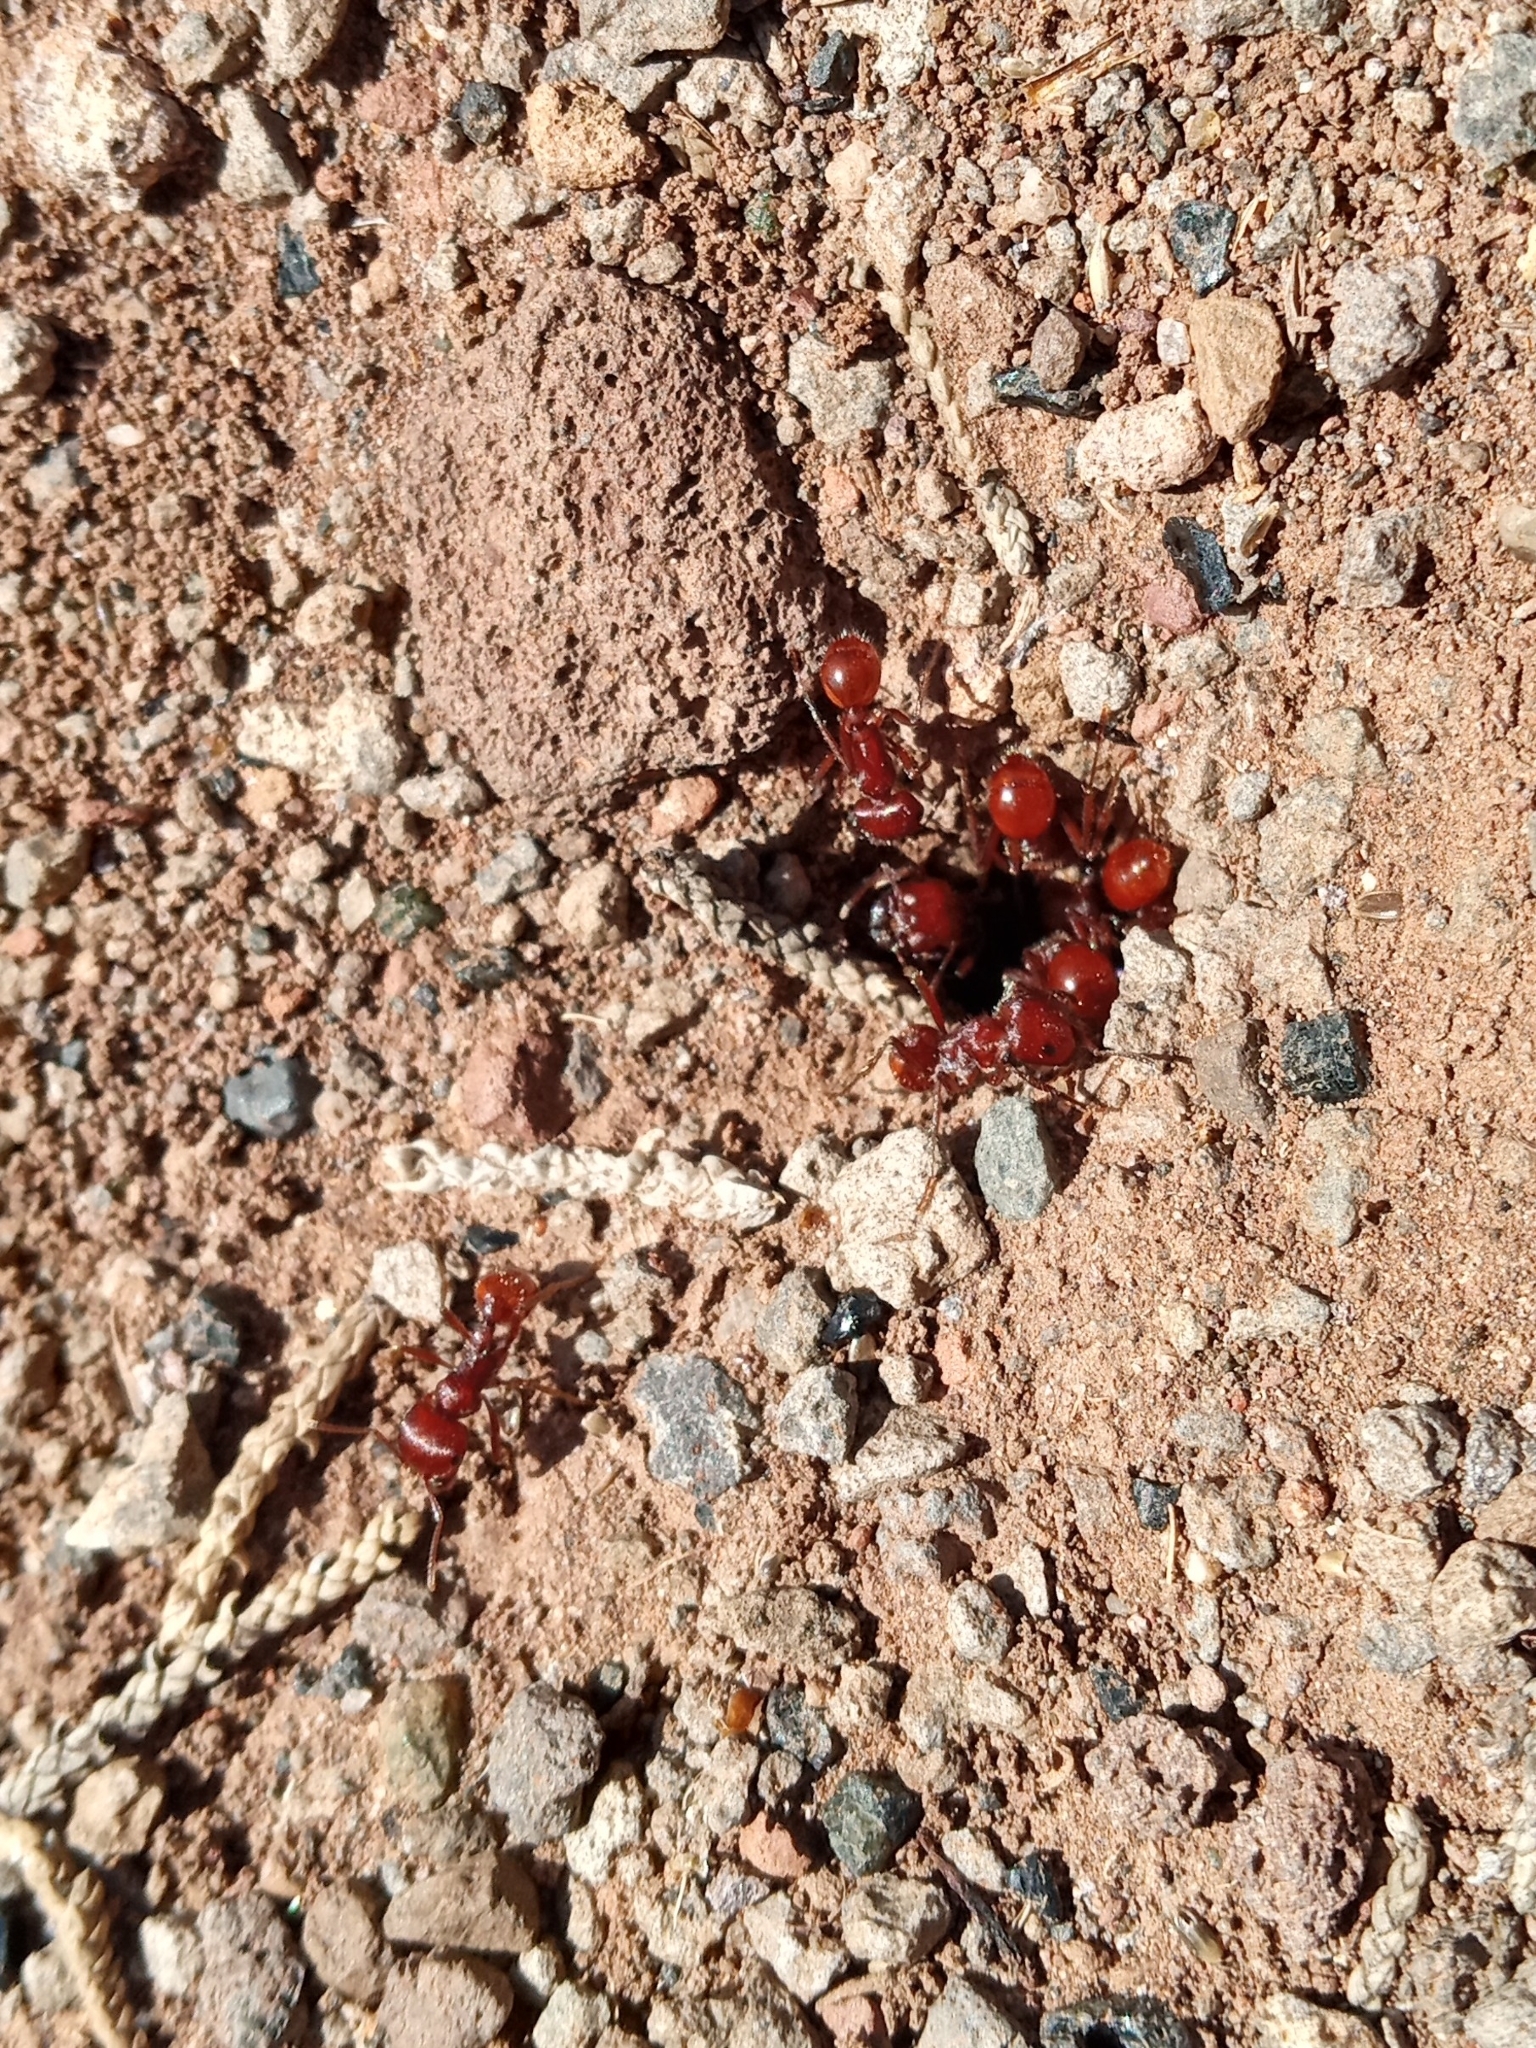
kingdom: Animalia
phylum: Arthropoda
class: Insecta
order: Hymenoptera
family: Formicidae
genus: Pogonomyrmex
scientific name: Pogonomyrmex barbatus
